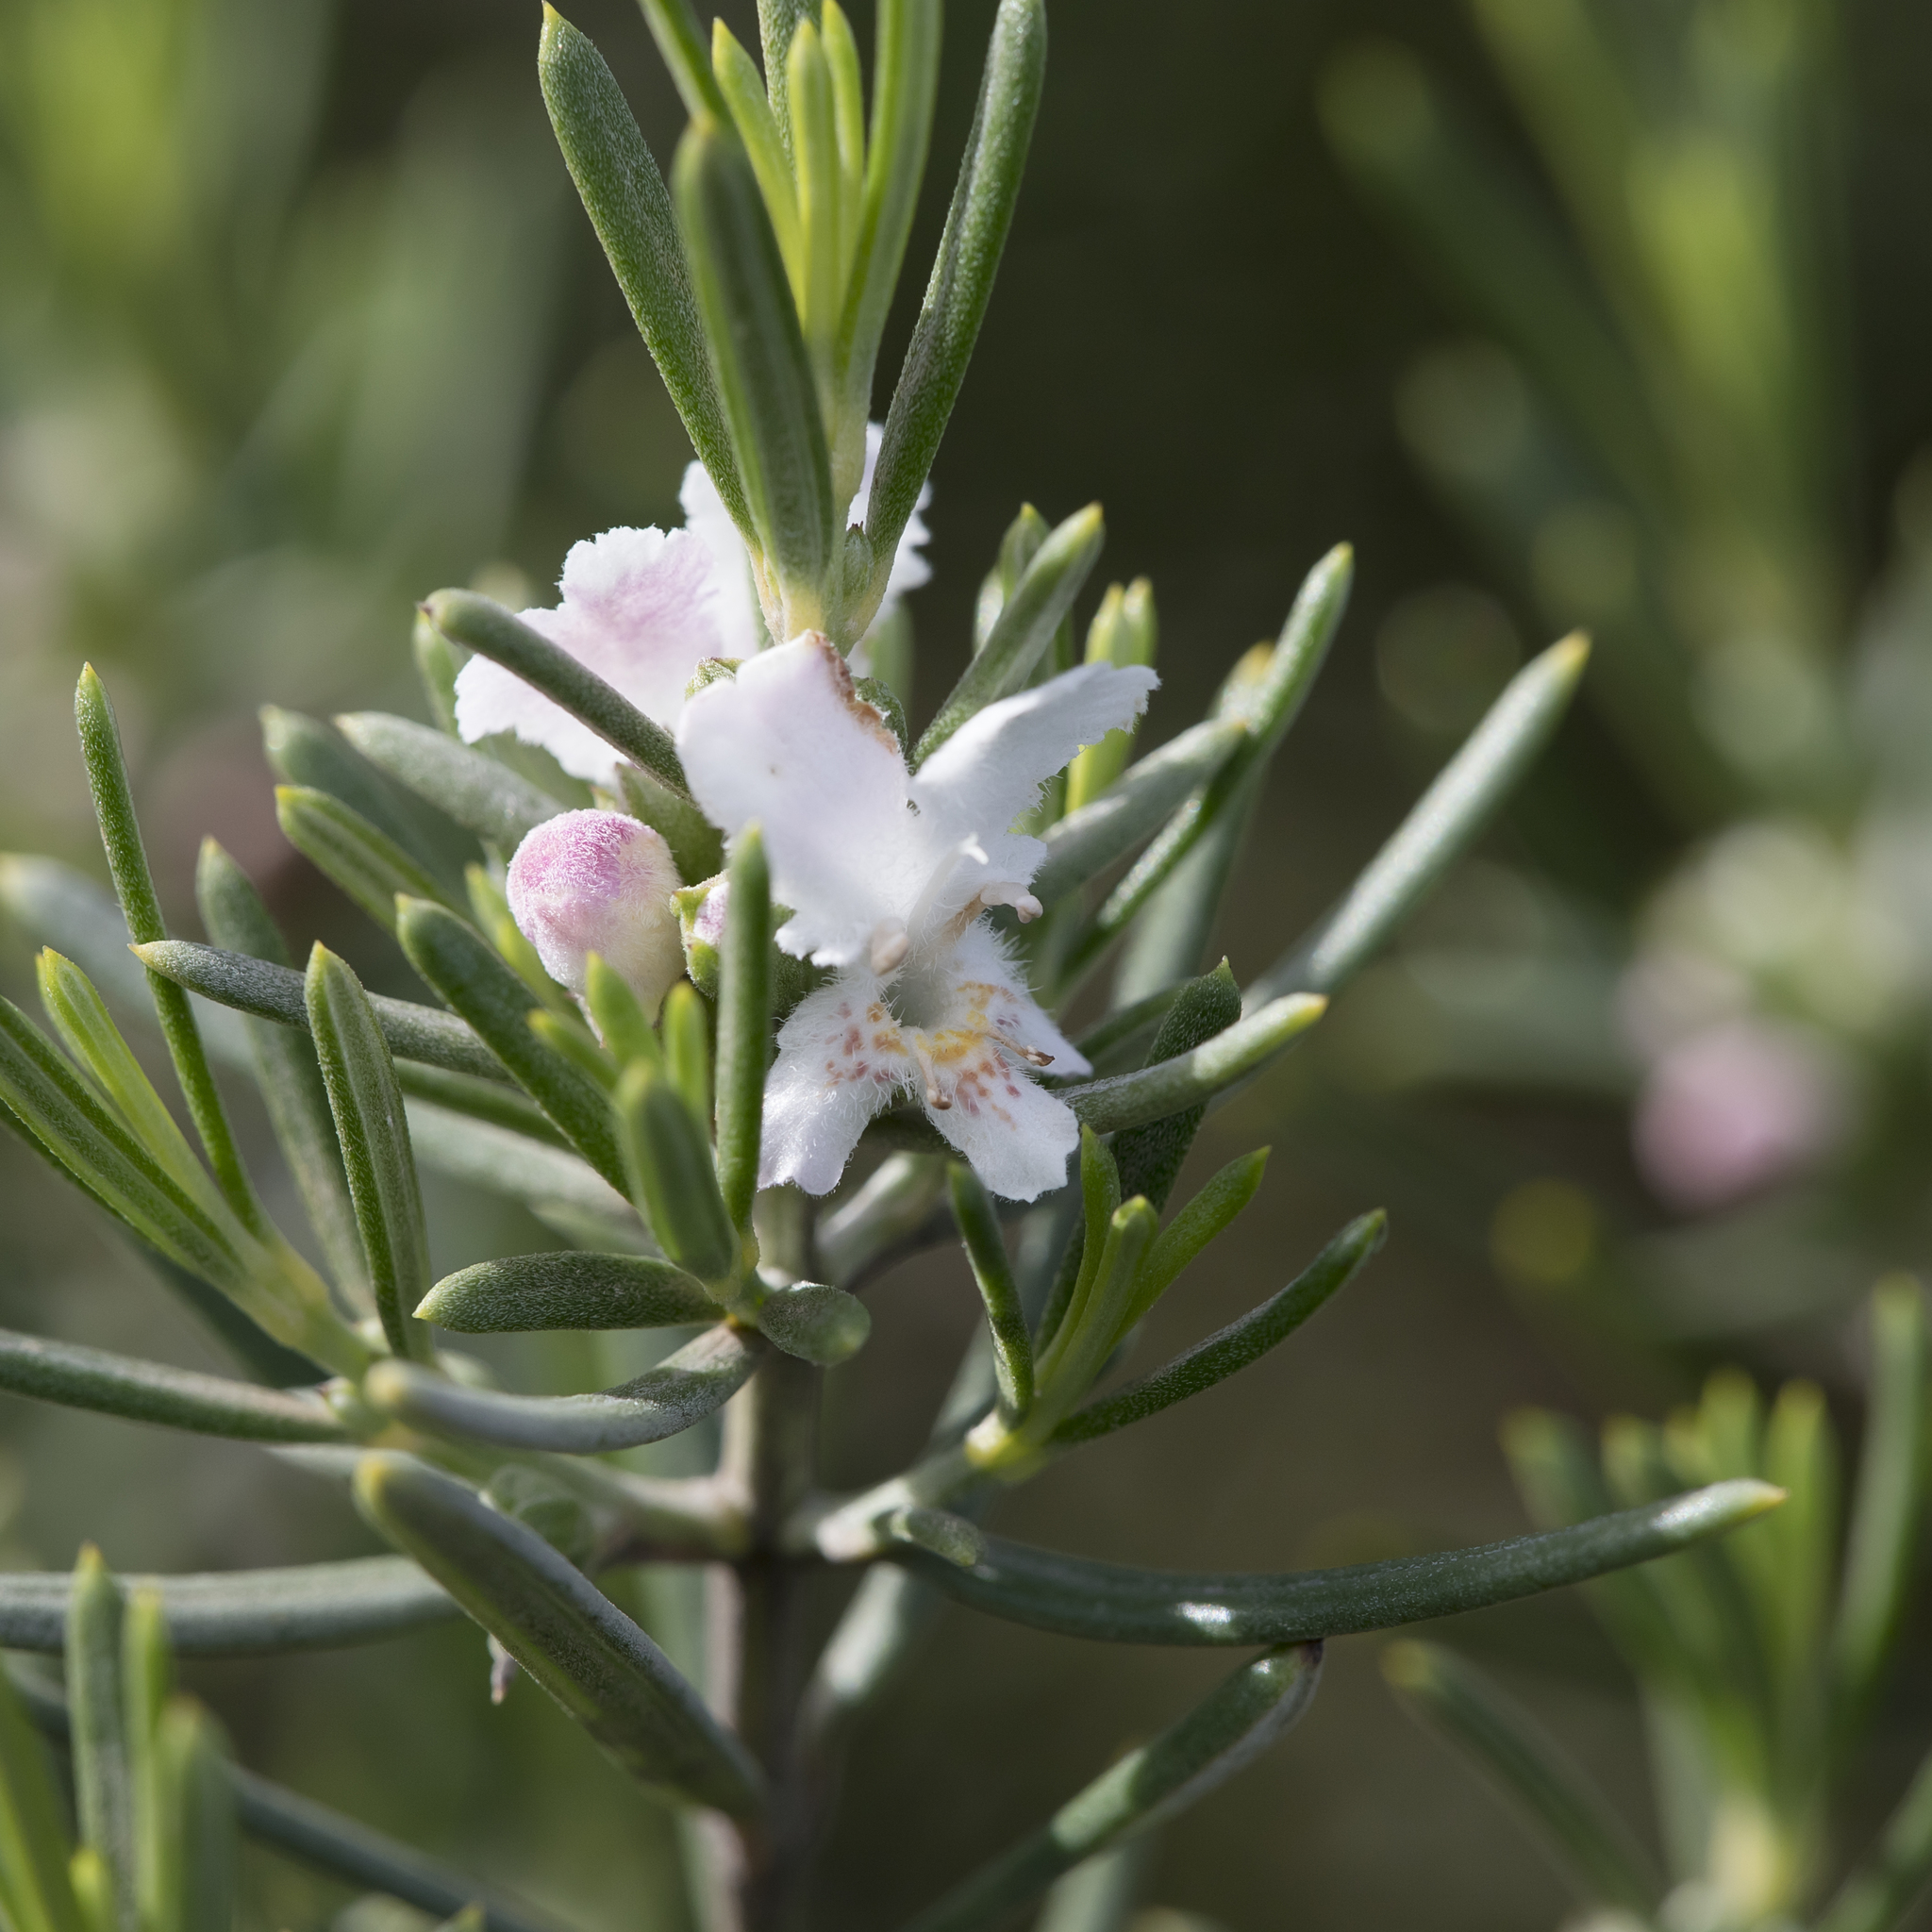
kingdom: Plantae
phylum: Tracheophyta
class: Magnoliopsida
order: Lamiales
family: Lamiaceae
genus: Westringia
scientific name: Westringia dampieri
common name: Shore westringia
